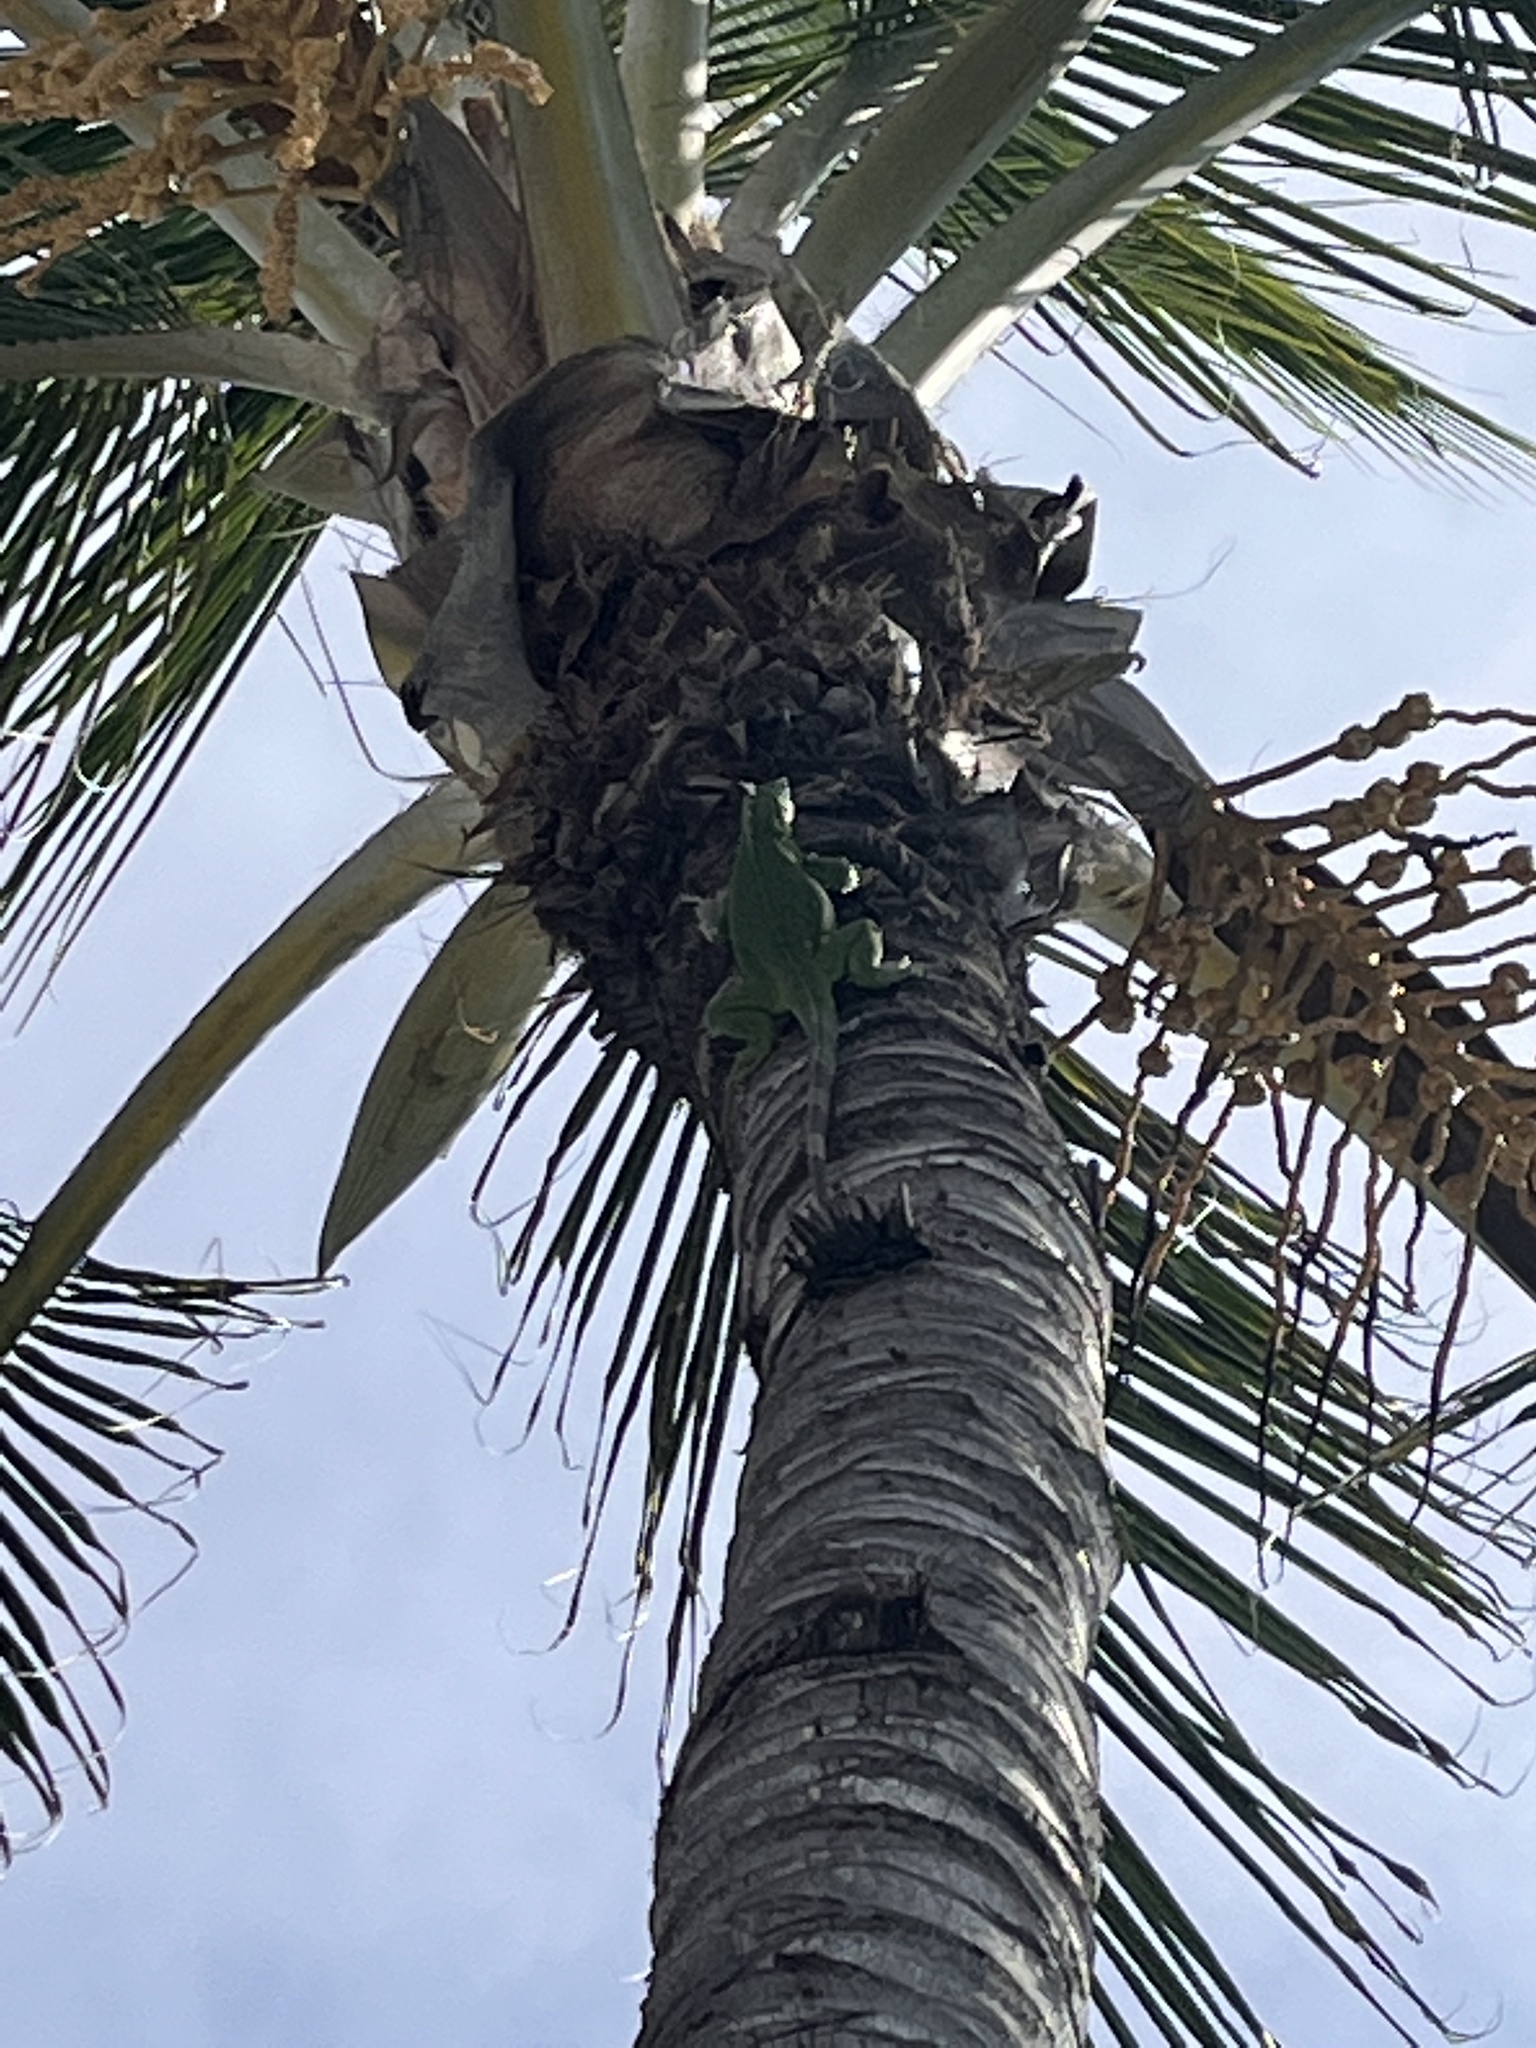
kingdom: Animalia
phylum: Chordata
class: Squamata
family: Iguanidae
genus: Iguana
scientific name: Iguana iguana
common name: Green iguana
